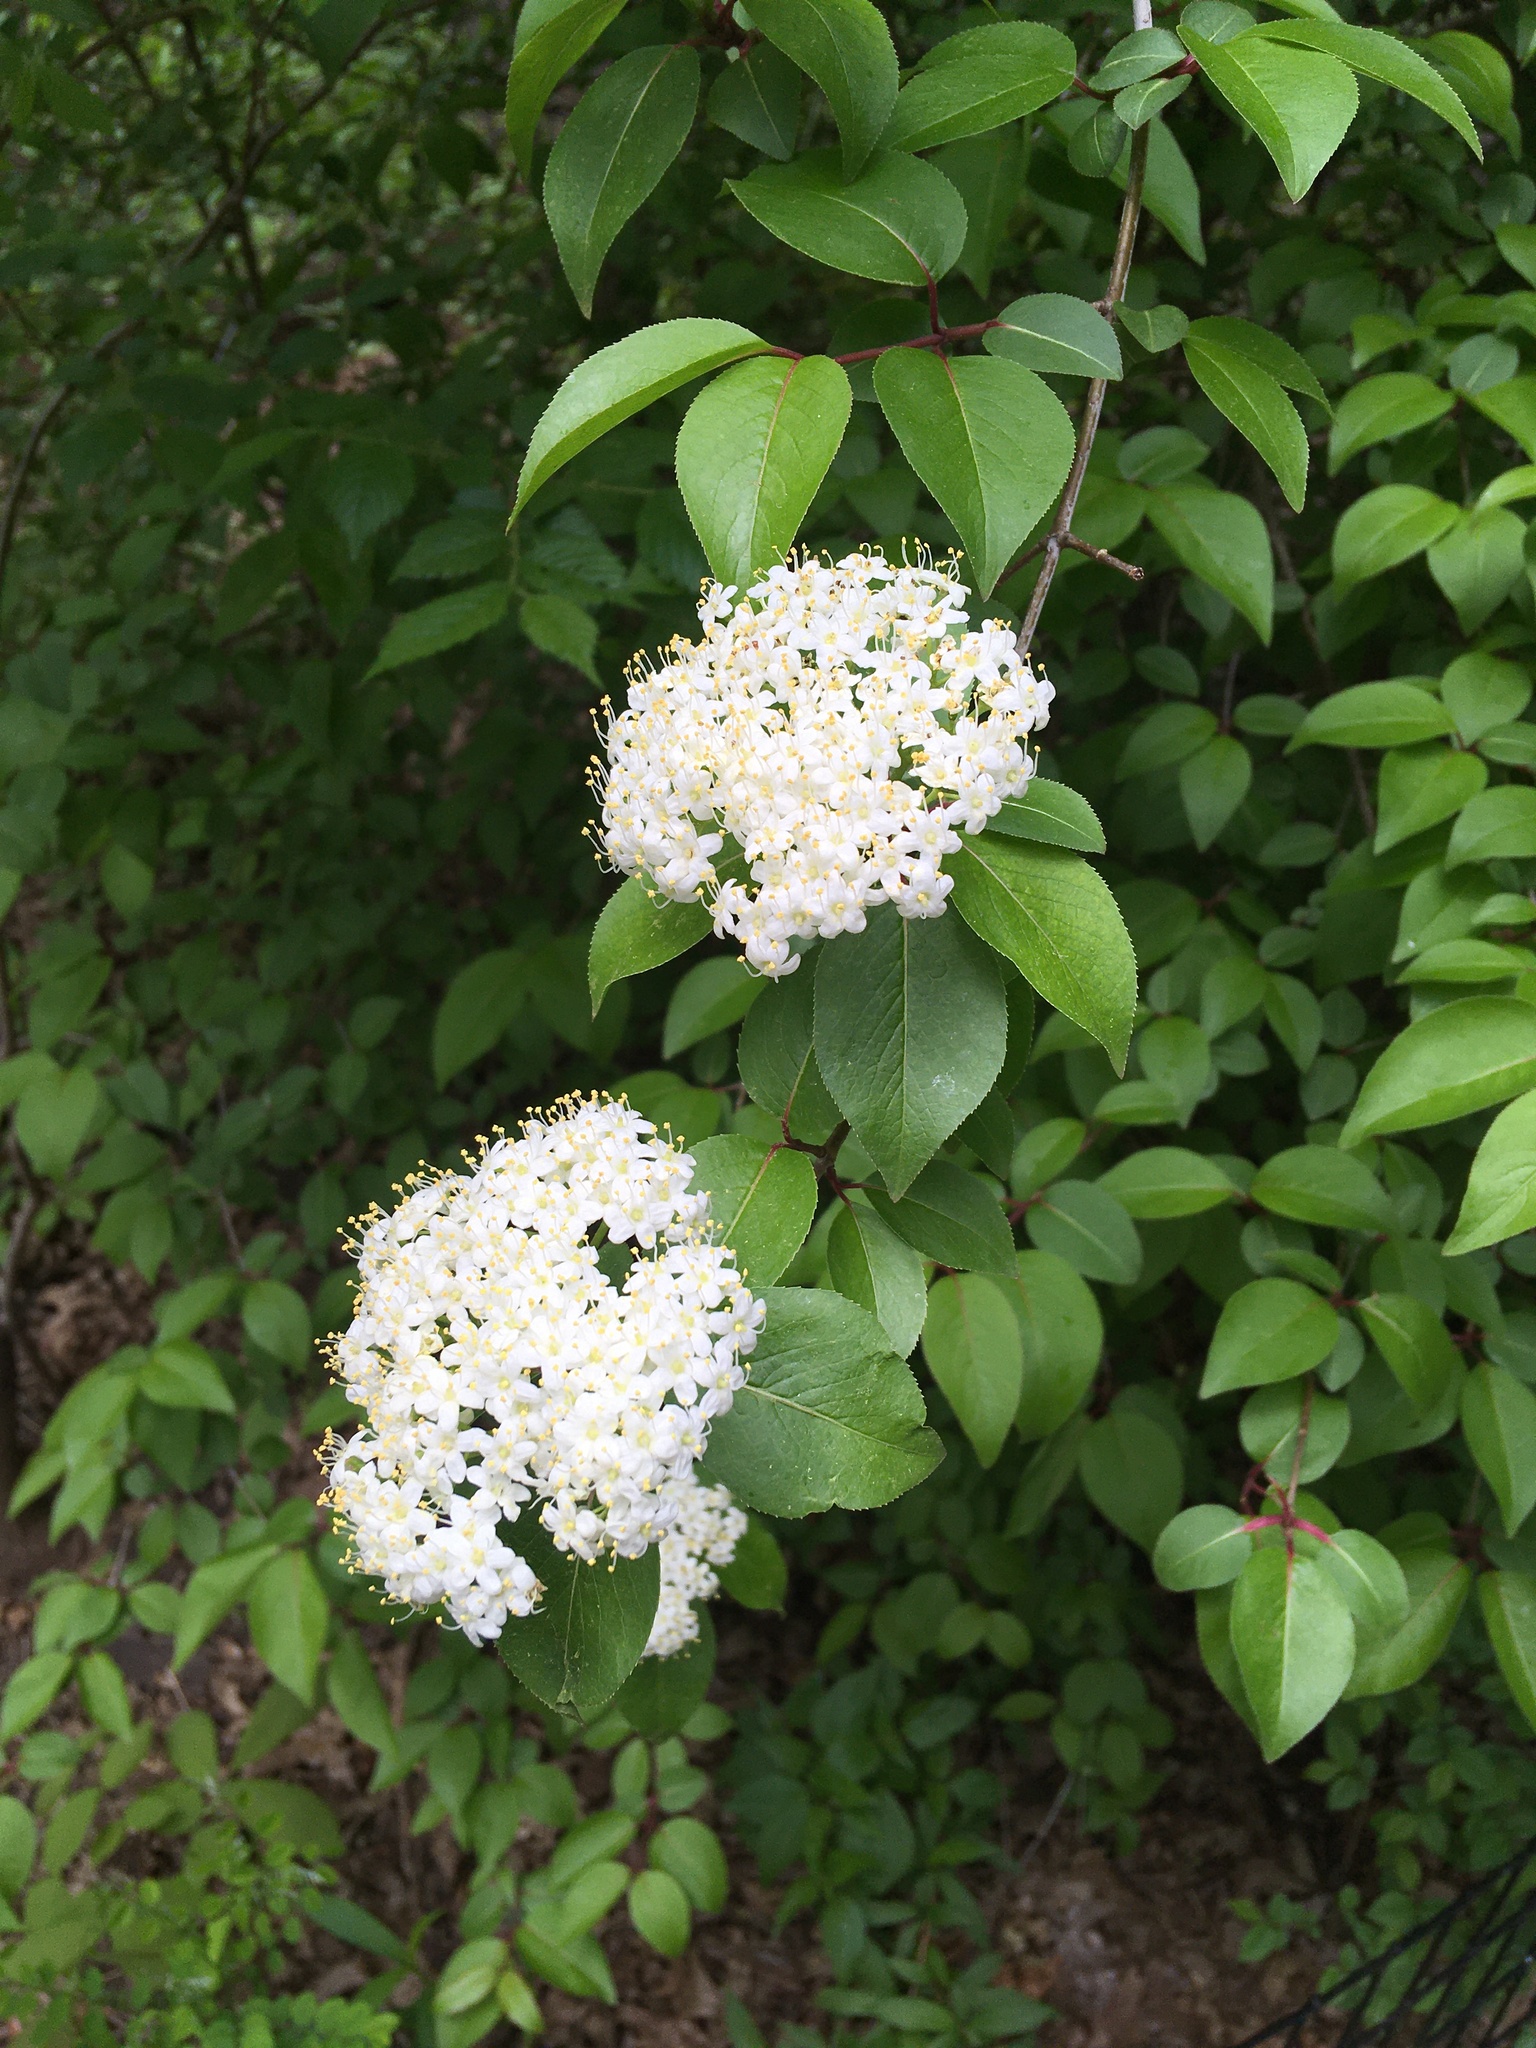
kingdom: Plantae
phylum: Tracheophyta
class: Magnoliopsida
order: Dipsacales
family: Viburnaceae
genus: Viburnum
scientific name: Viburnum prunifolium
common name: Black haw
